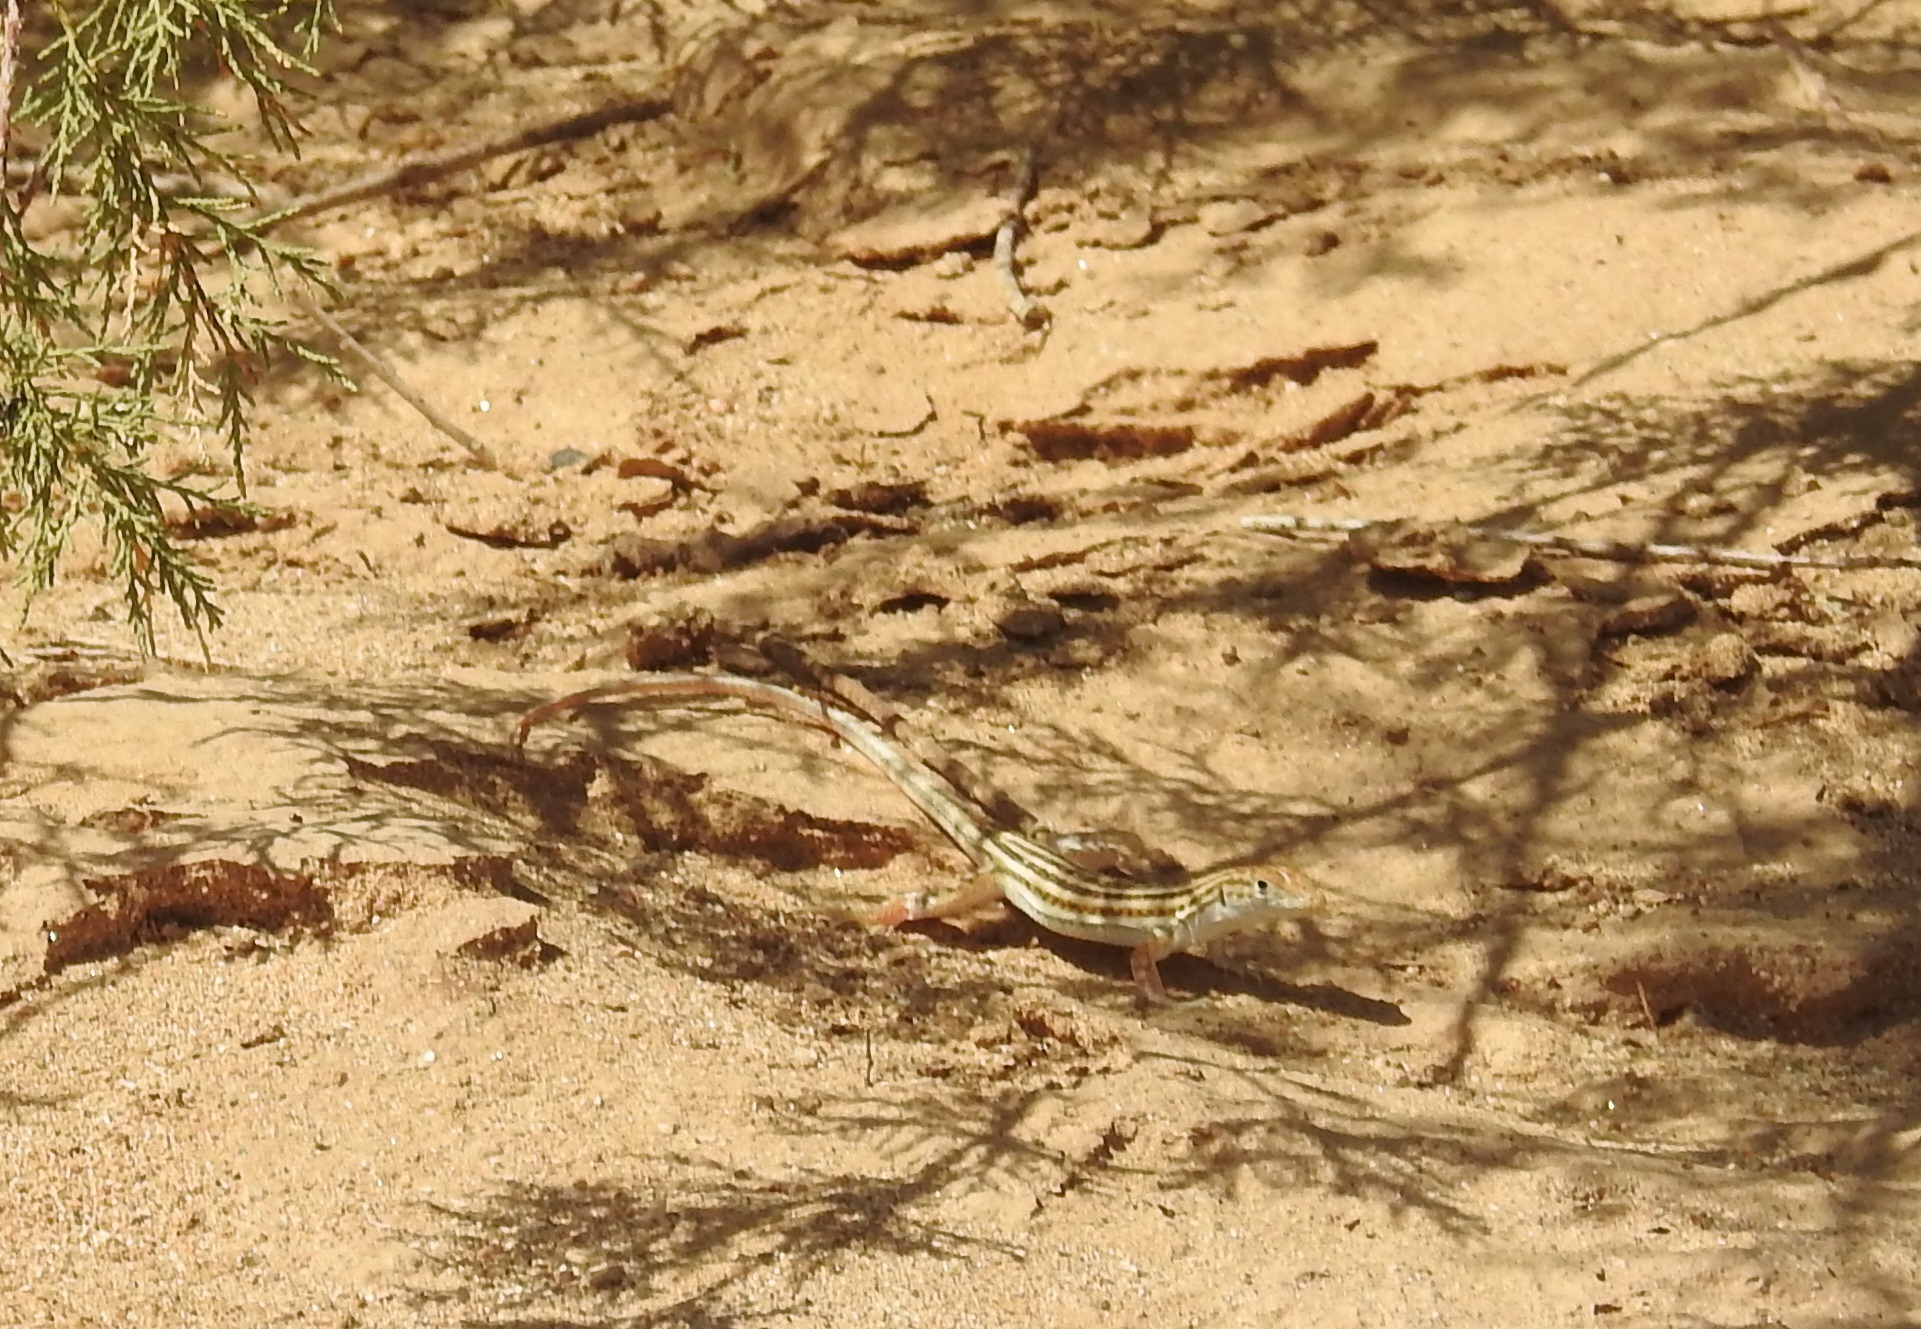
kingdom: Animalia
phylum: Chordata
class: Squamata
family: Lacertidae
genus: Acanthodactylus
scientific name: Acanthodactylus boskianus
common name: Bosc’s fringe-toed lizard
